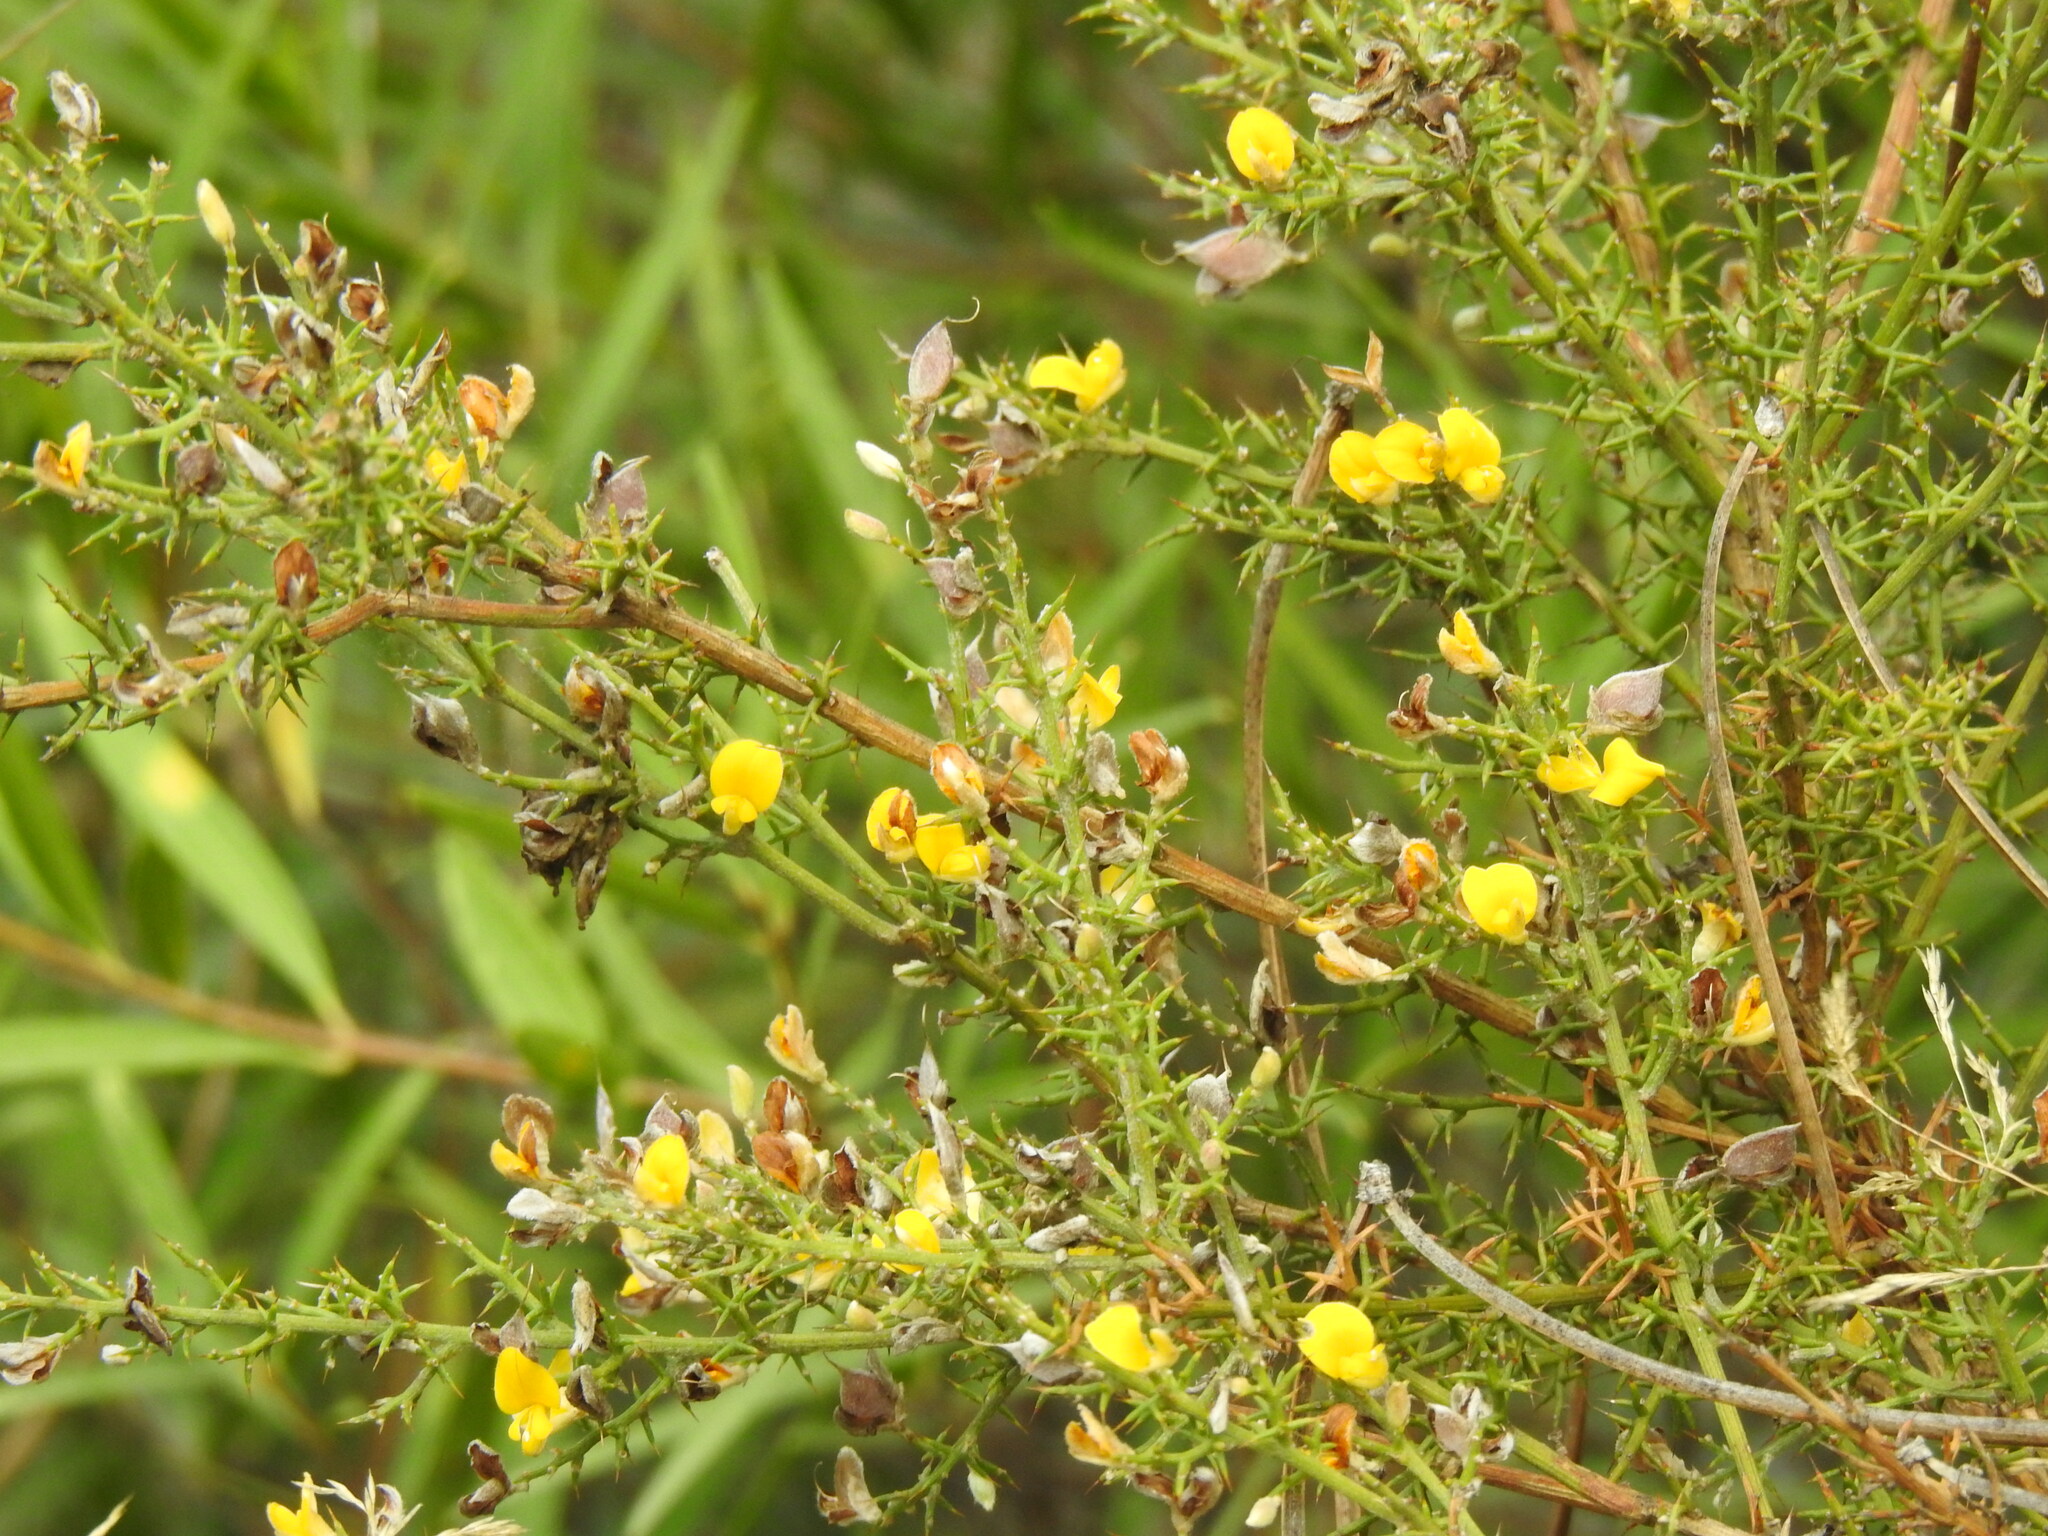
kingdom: Plantae
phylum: Tracheophyta
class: Magnoliopsida
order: Fabales
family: Fabaceae
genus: Stauracanthus
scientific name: Stauracanthus boivinii
